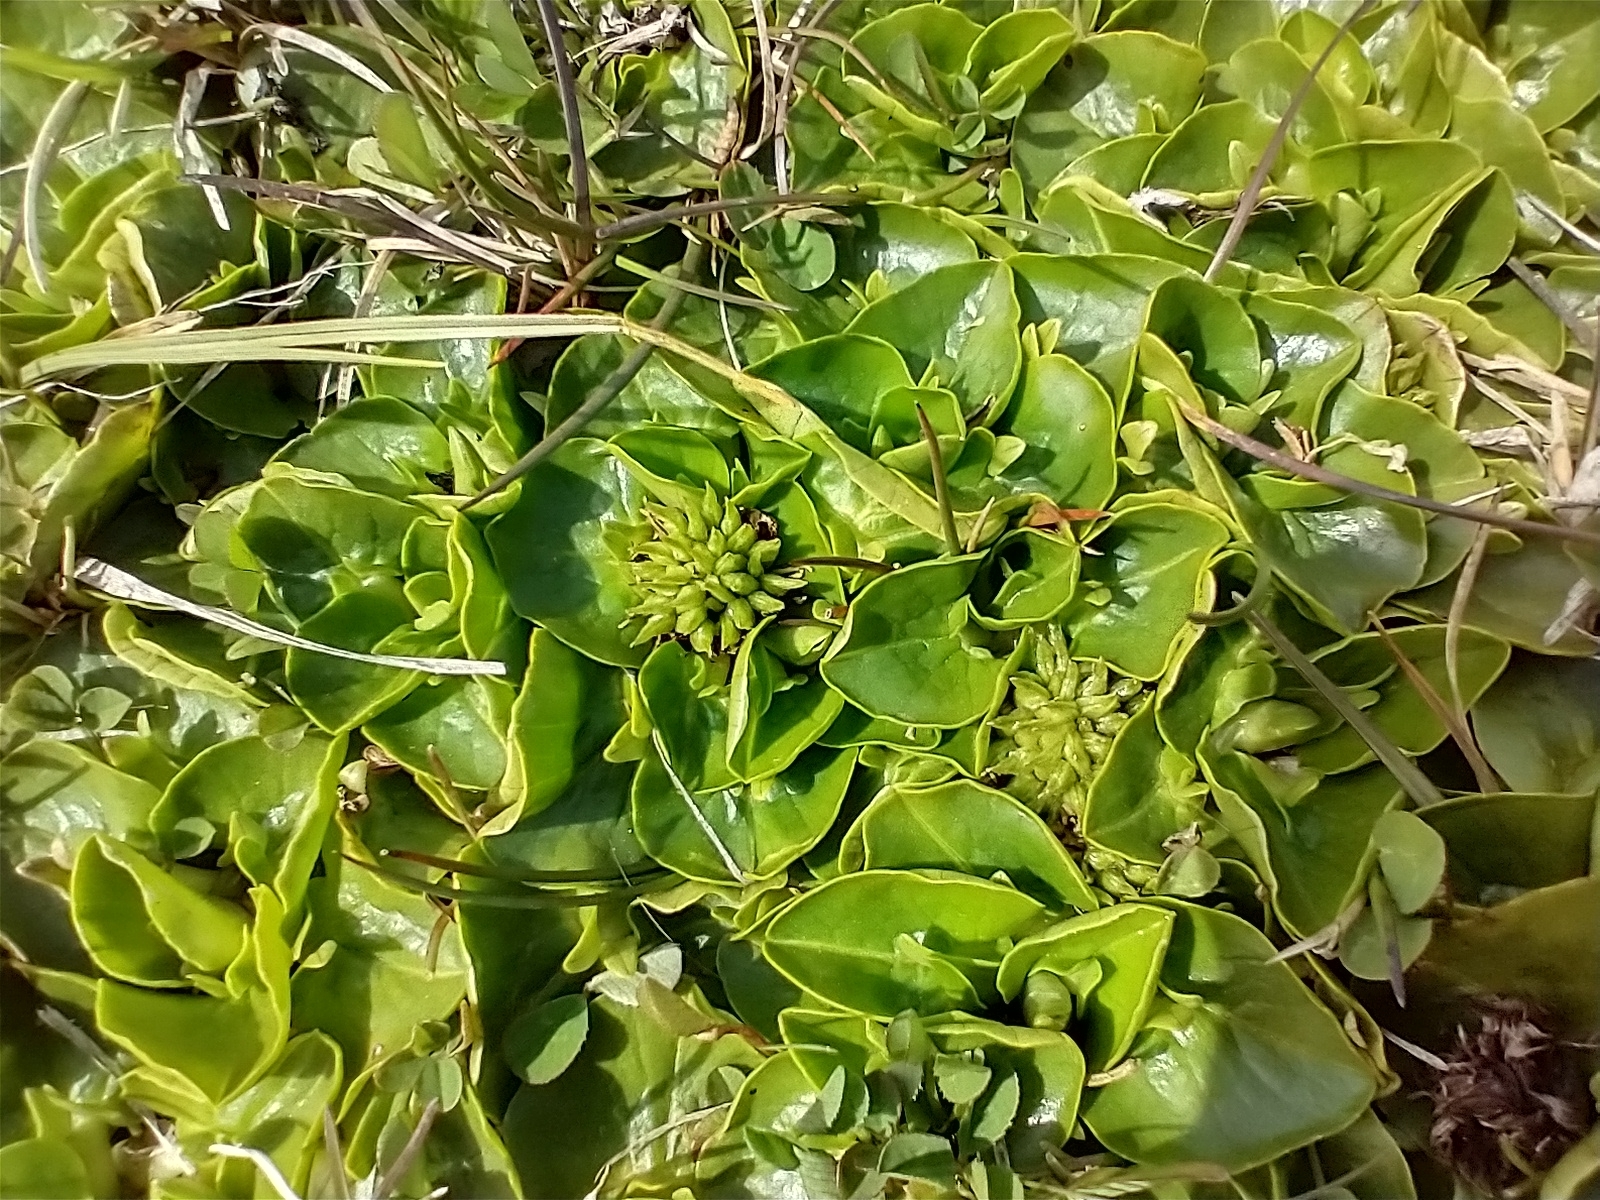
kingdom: Plantae
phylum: Tracheophyta
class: Magnoliopsida
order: Ranunculales
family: Ranunculaceae
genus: Caltha
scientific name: Caltha sagittata
